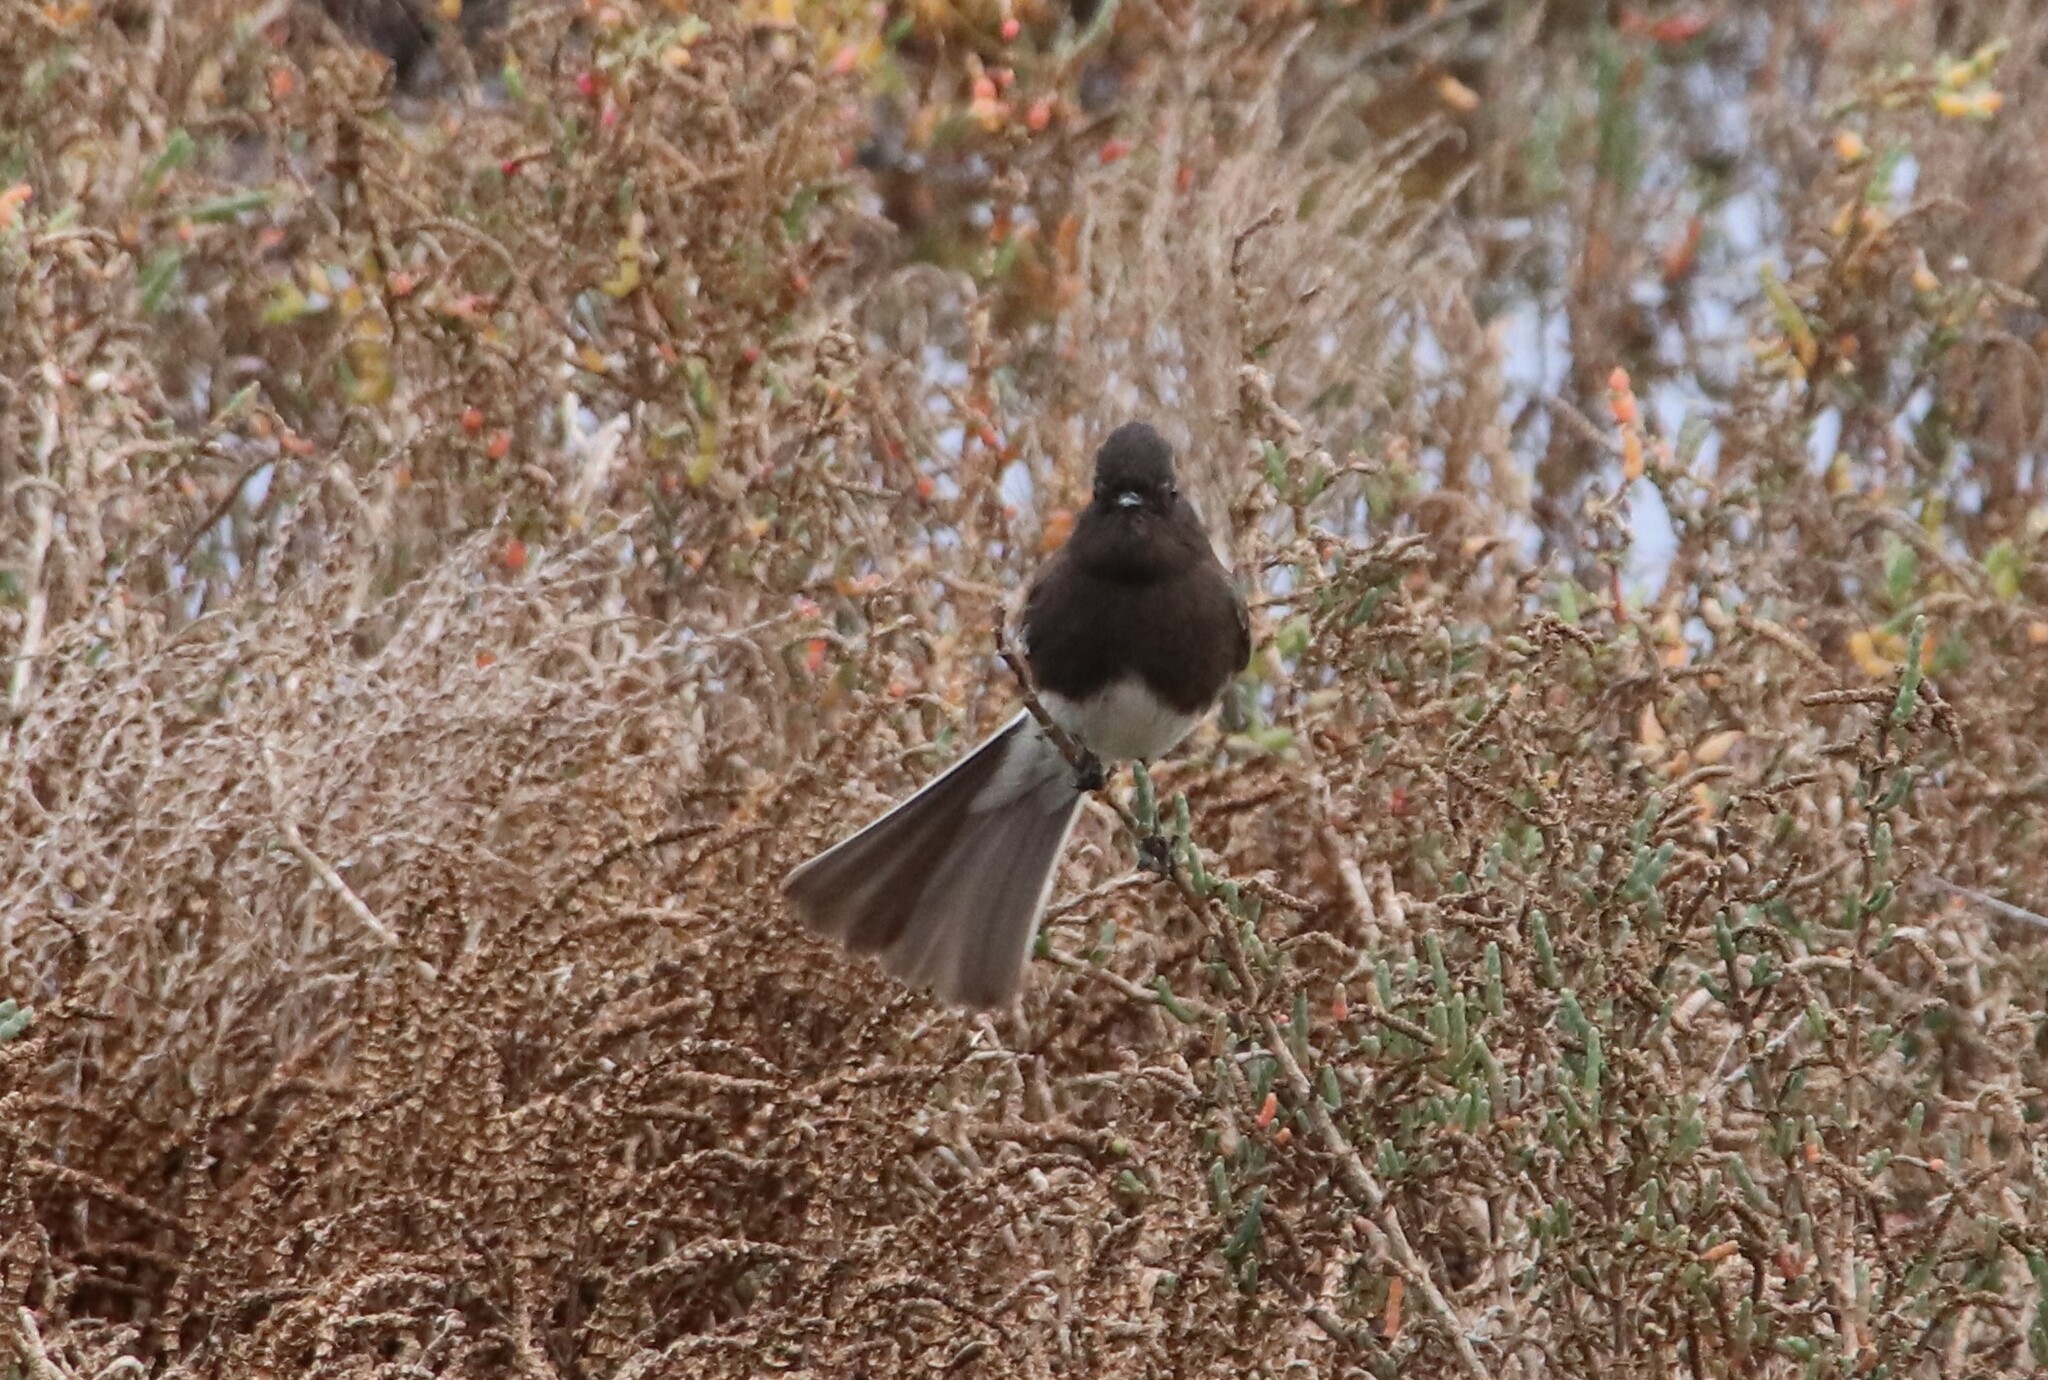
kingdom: Animalia
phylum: Chordata
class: Aves
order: Passeriformes
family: Tyrannidae
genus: Sayornis
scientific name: Sayornis nigricans
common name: Black phoebe
